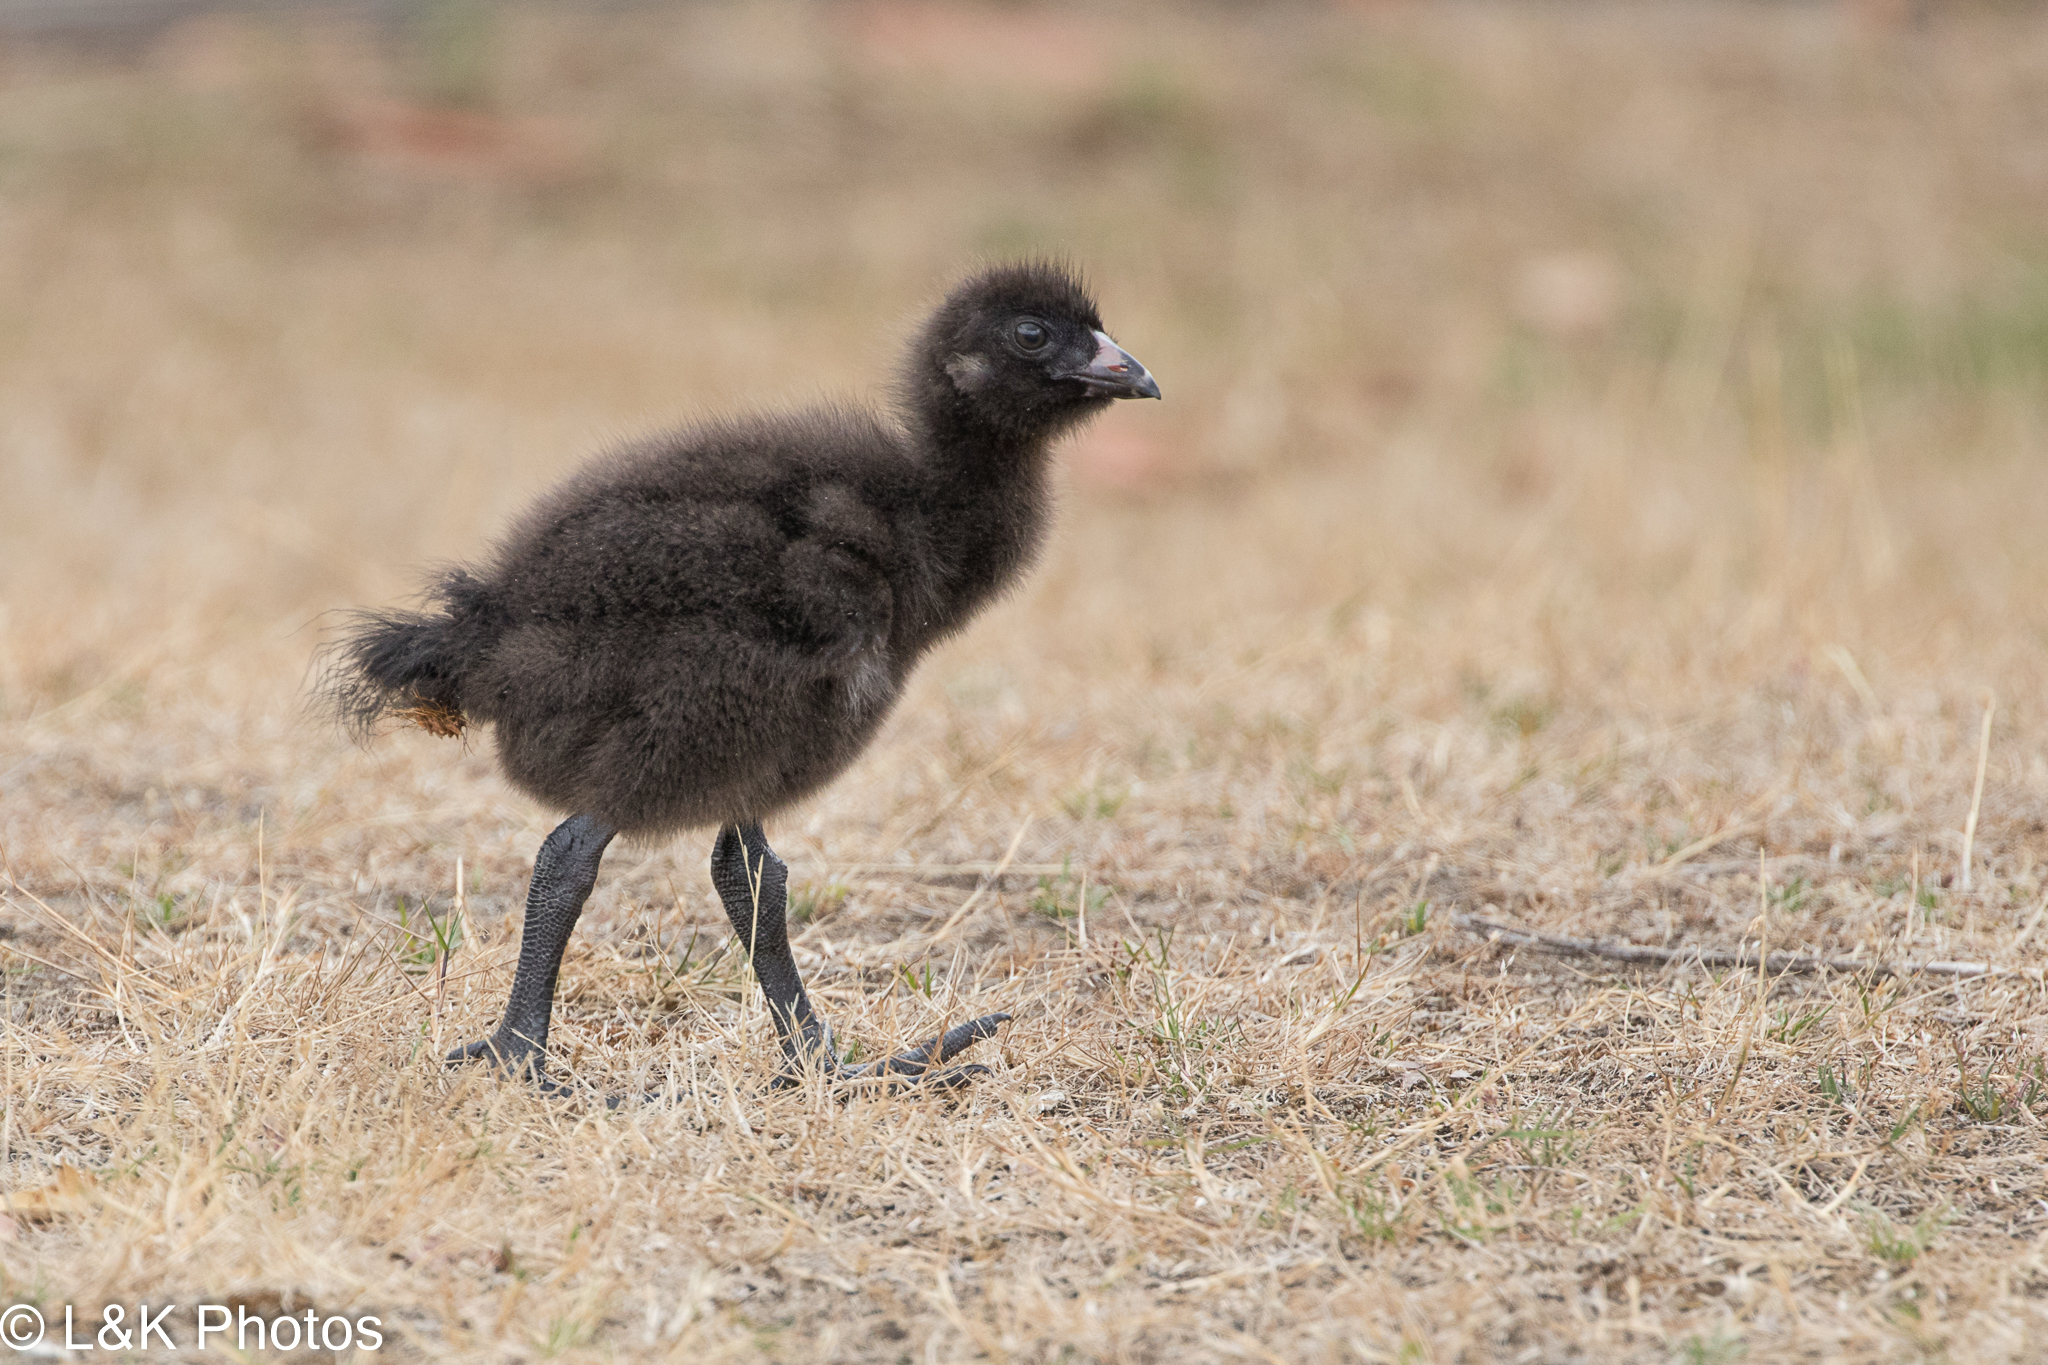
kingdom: Animalia
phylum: Chordata
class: Aves
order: Gruiformes
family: Rallidae
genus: Gallinula
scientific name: Gallinula mortierii
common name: Tasmanian nativehen
